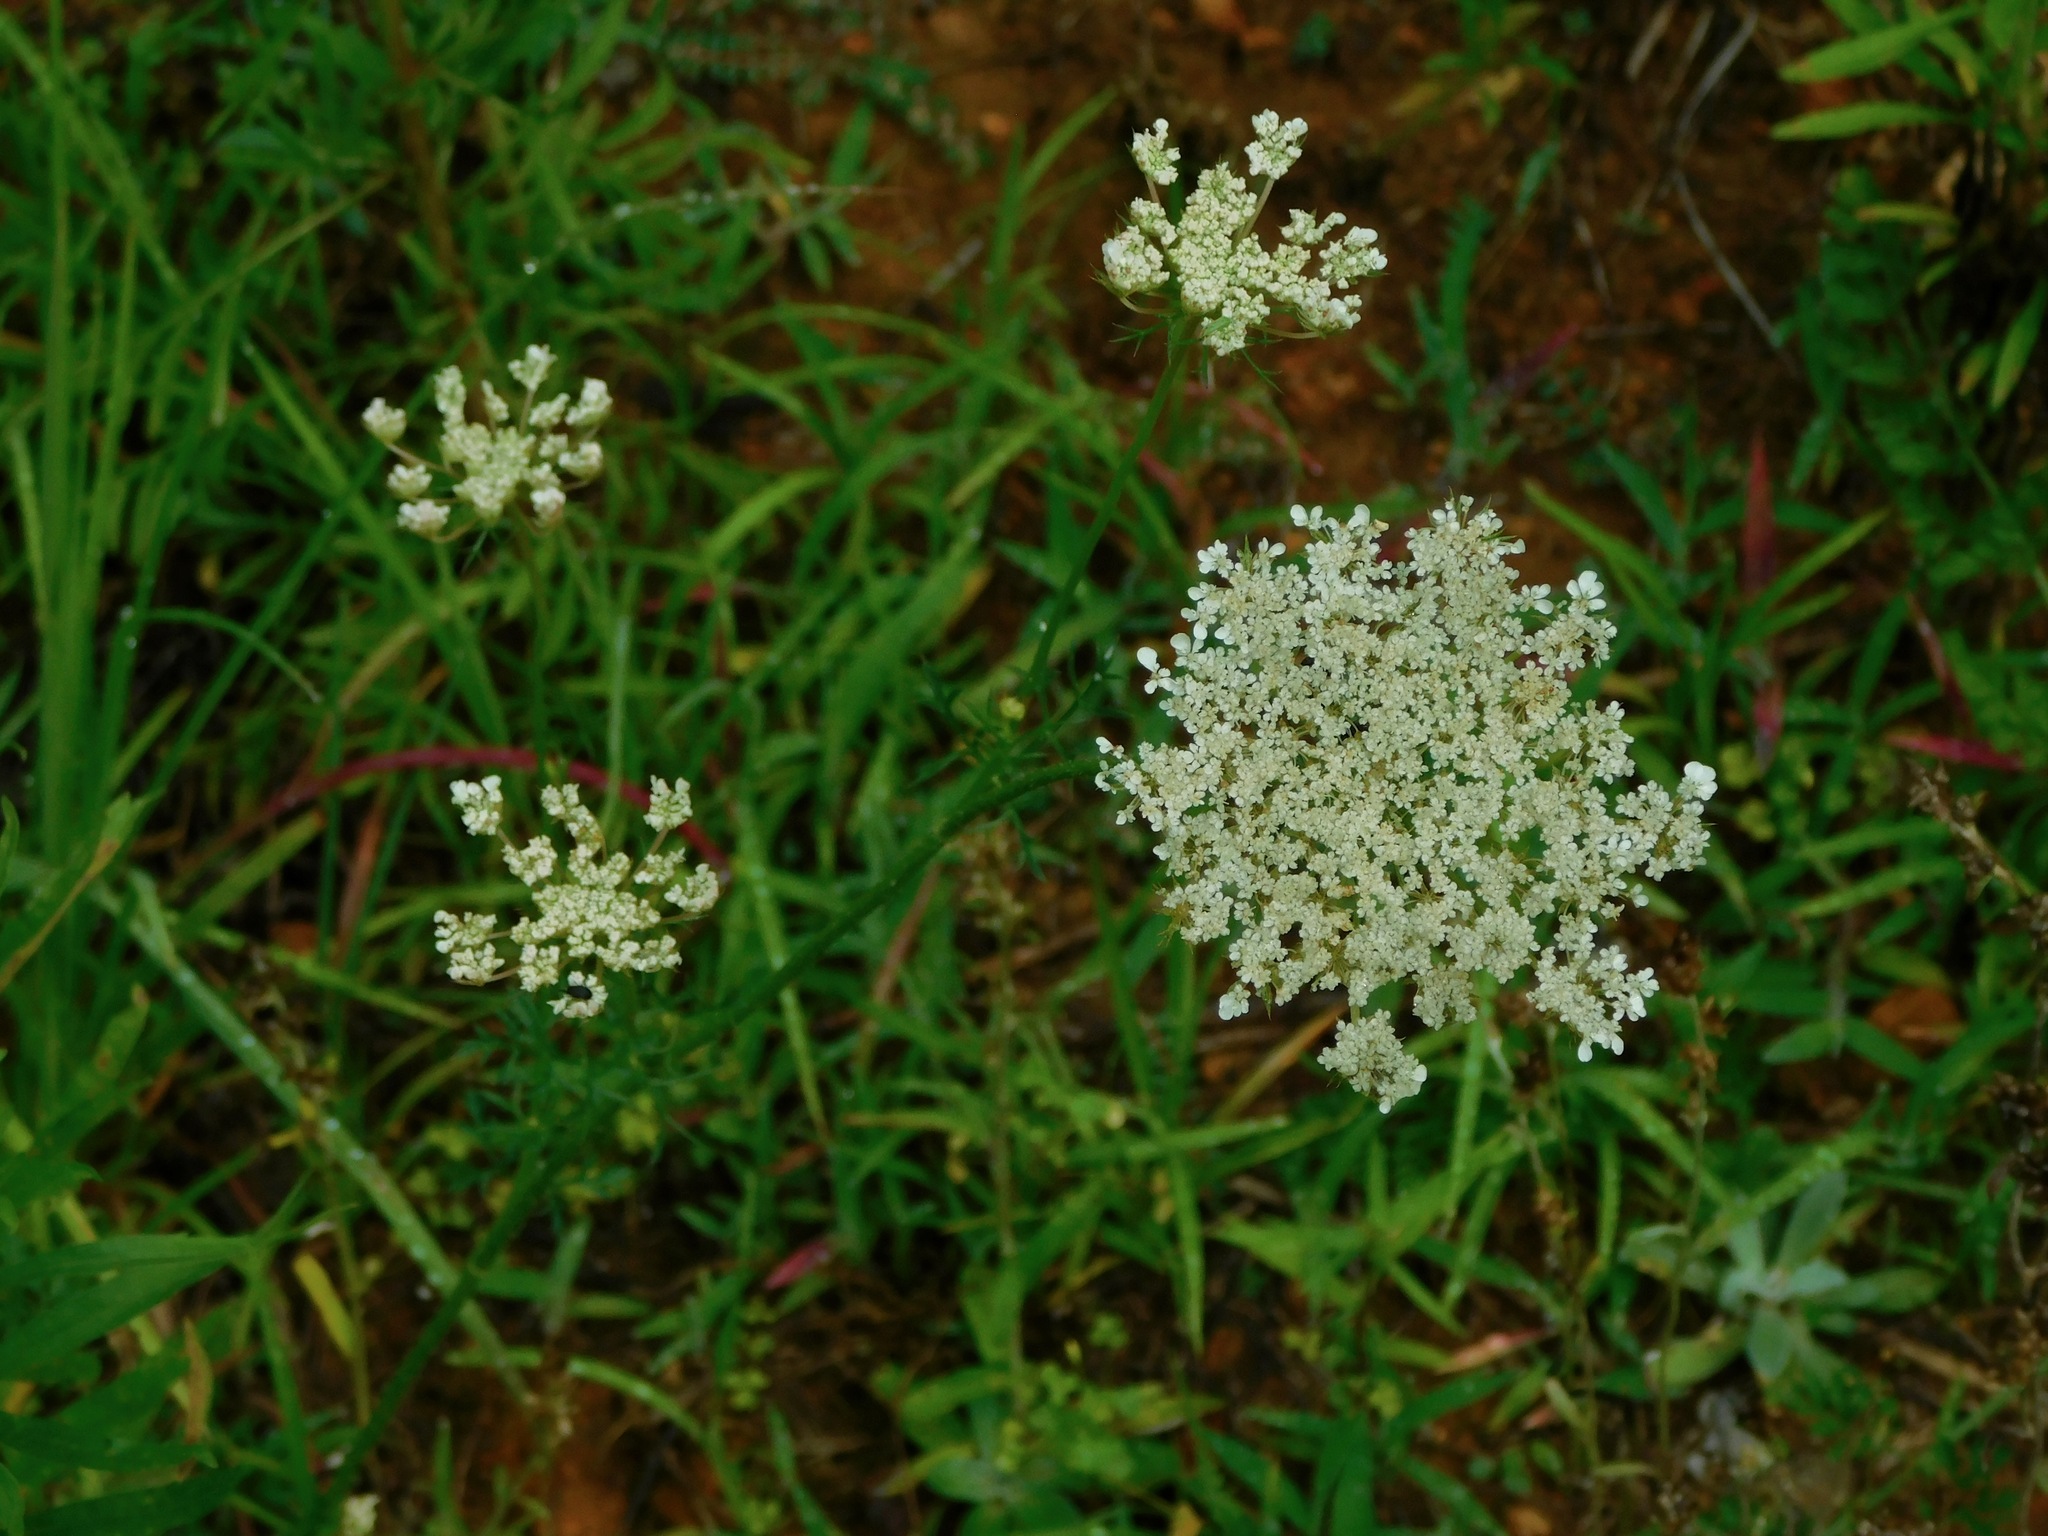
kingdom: Plantae
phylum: Tracheophyta
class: Magnoliopsida
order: Apiales
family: Apiaceae
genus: Daucus
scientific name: Daucus carota
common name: Wild carrot
